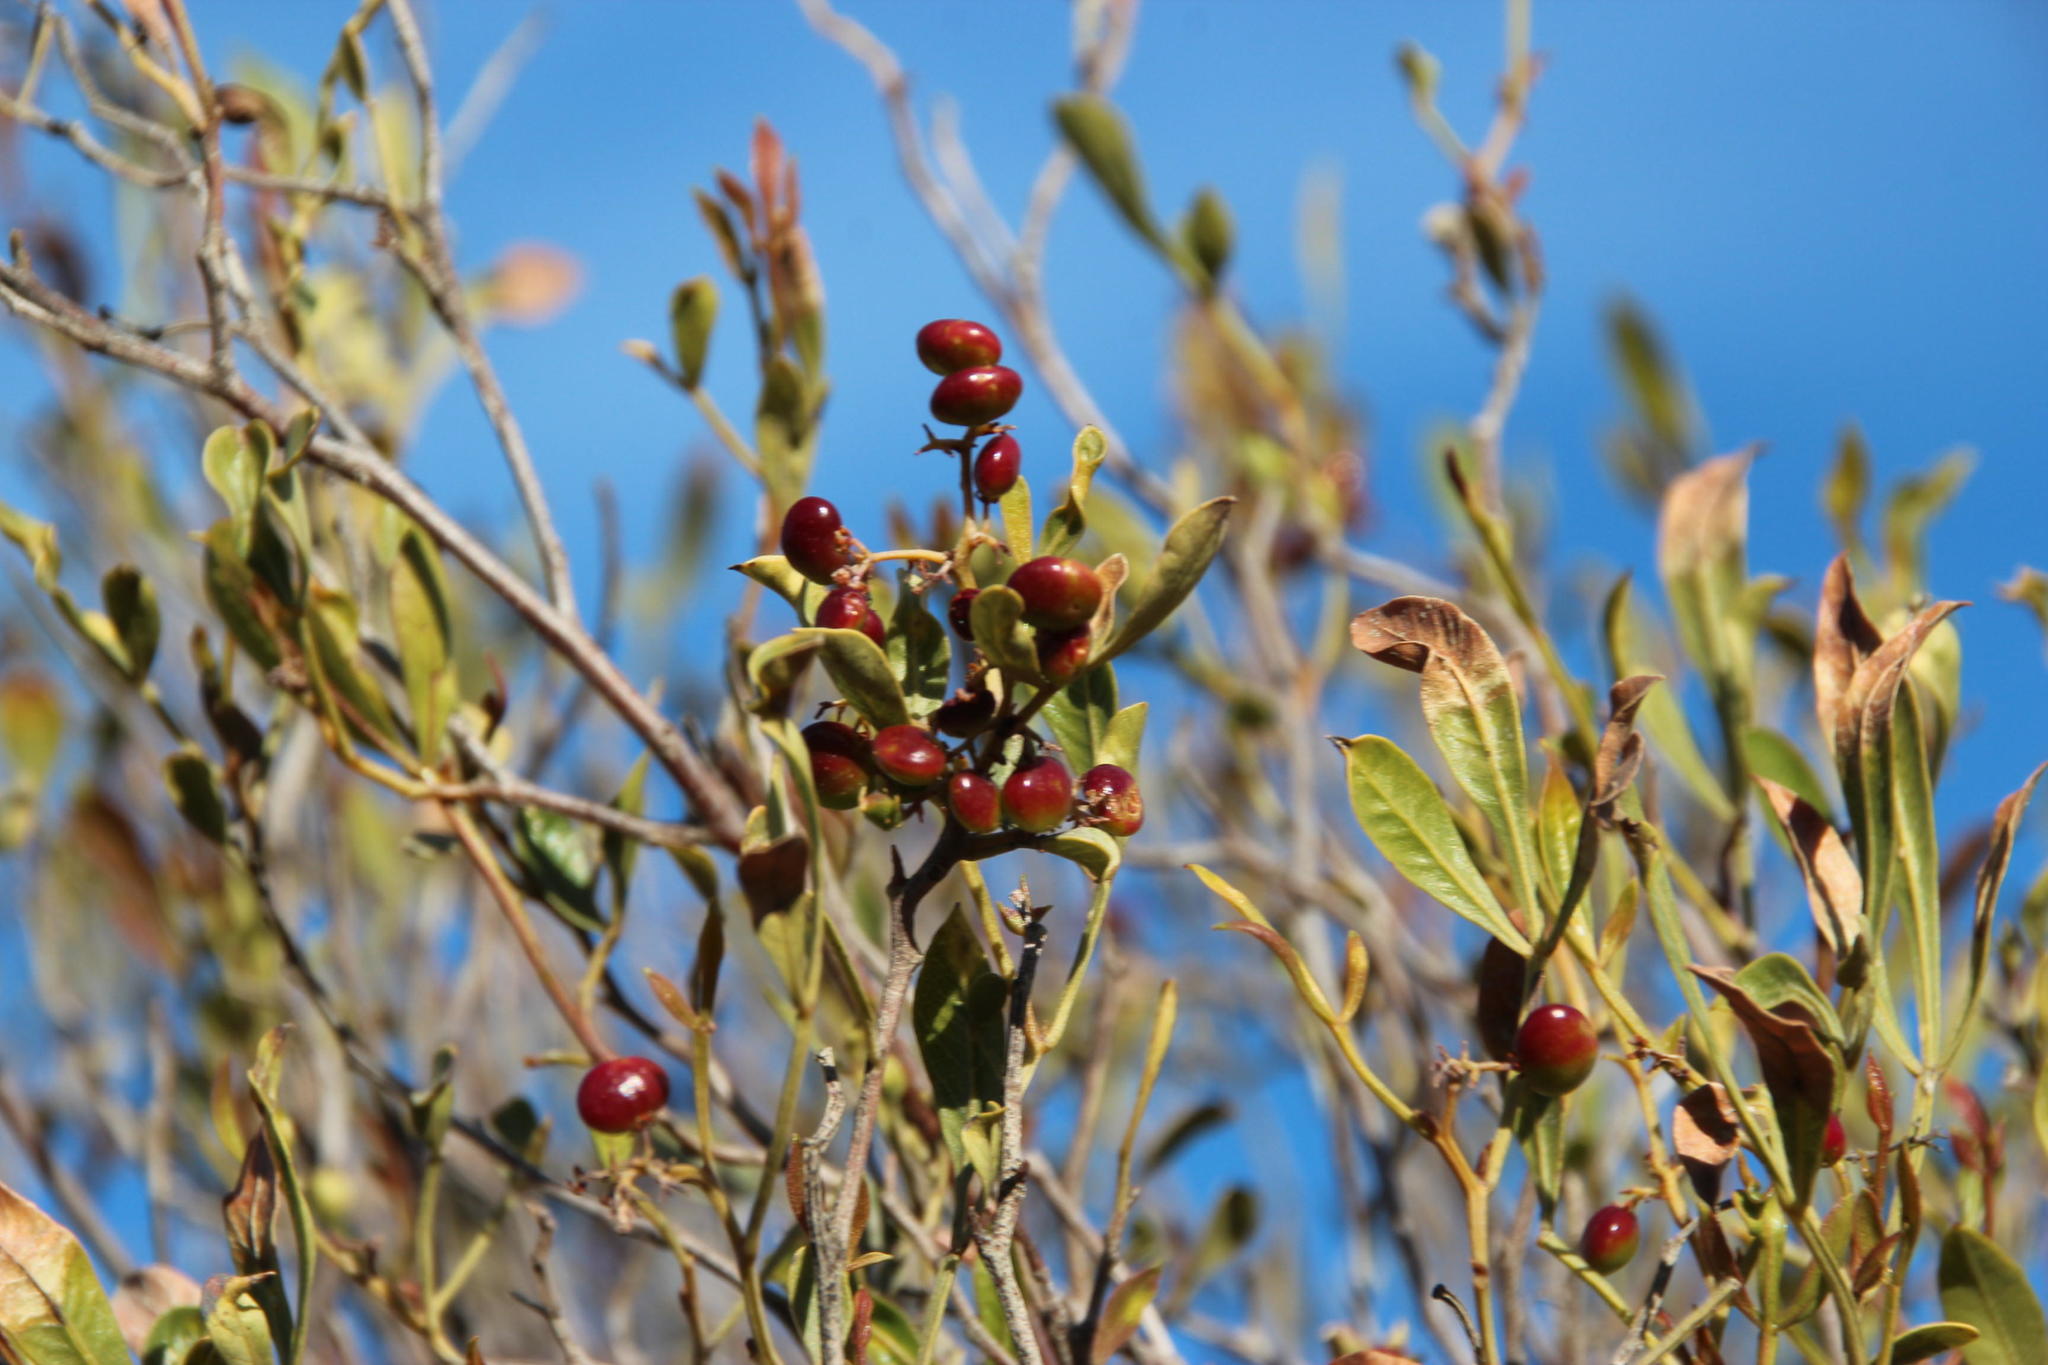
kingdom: Plantae
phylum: Tracheophyta
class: Magnoliopsida
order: Sapindales
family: Anacardiaceae
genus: Searsia
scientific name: Searsia pallens
